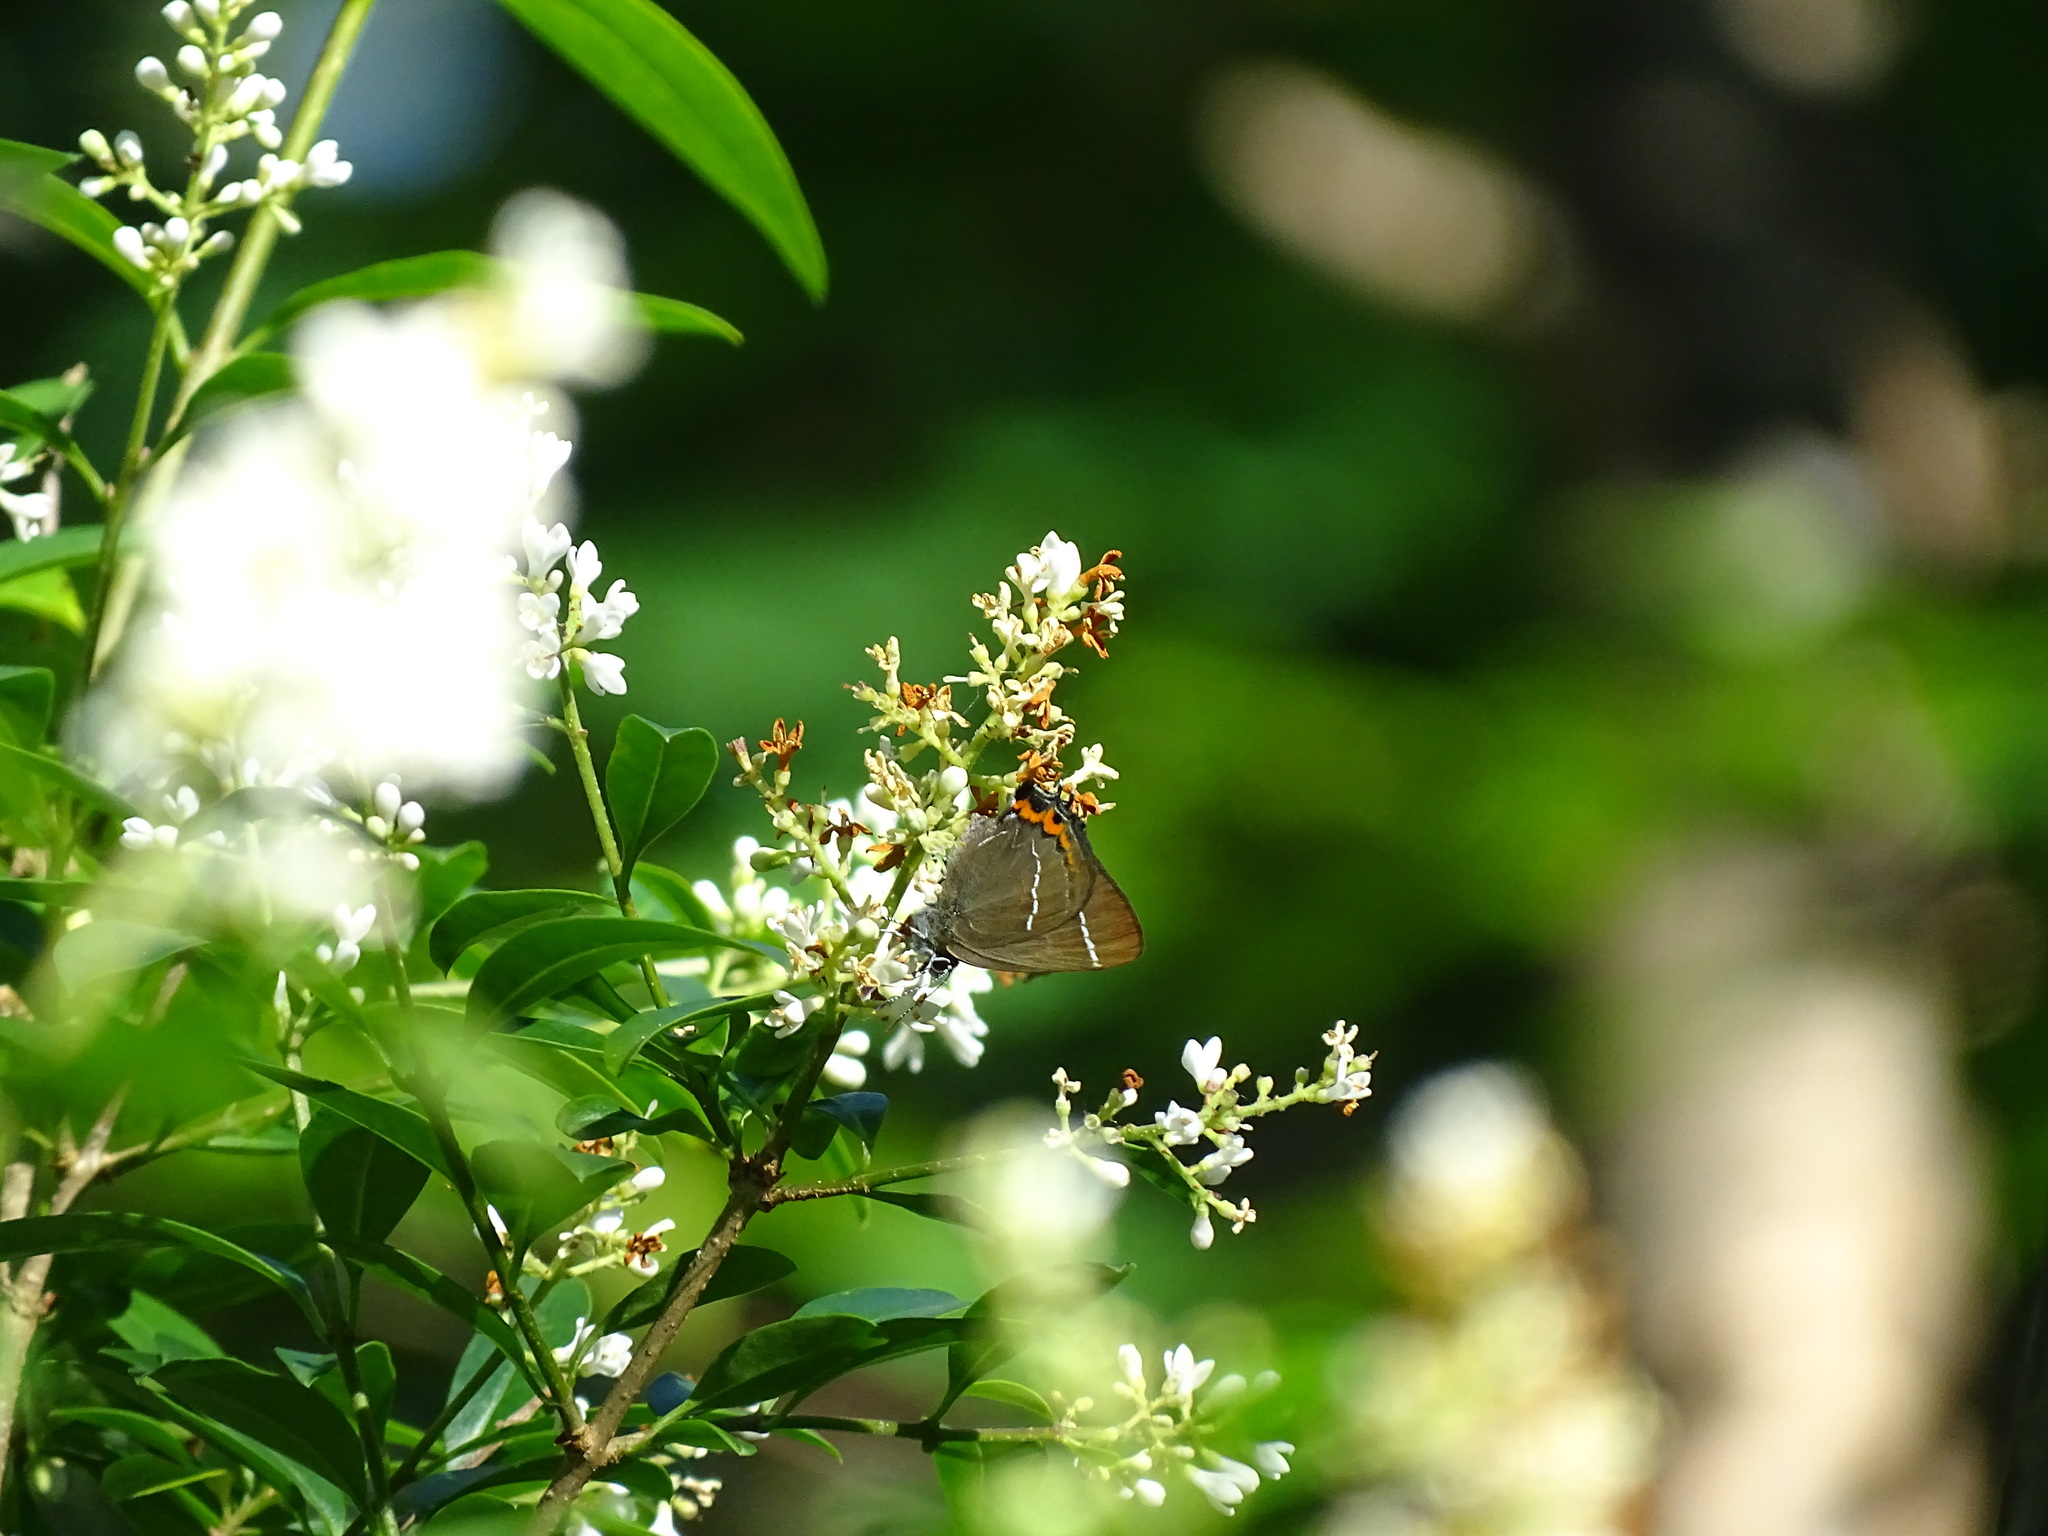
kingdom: Animalia
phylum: Arthropoda
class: Insecta
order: Lepidoptera
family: Lycaenidae
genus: Satyrium
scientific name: Satyrium w-album
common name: White-letter hairstreak
